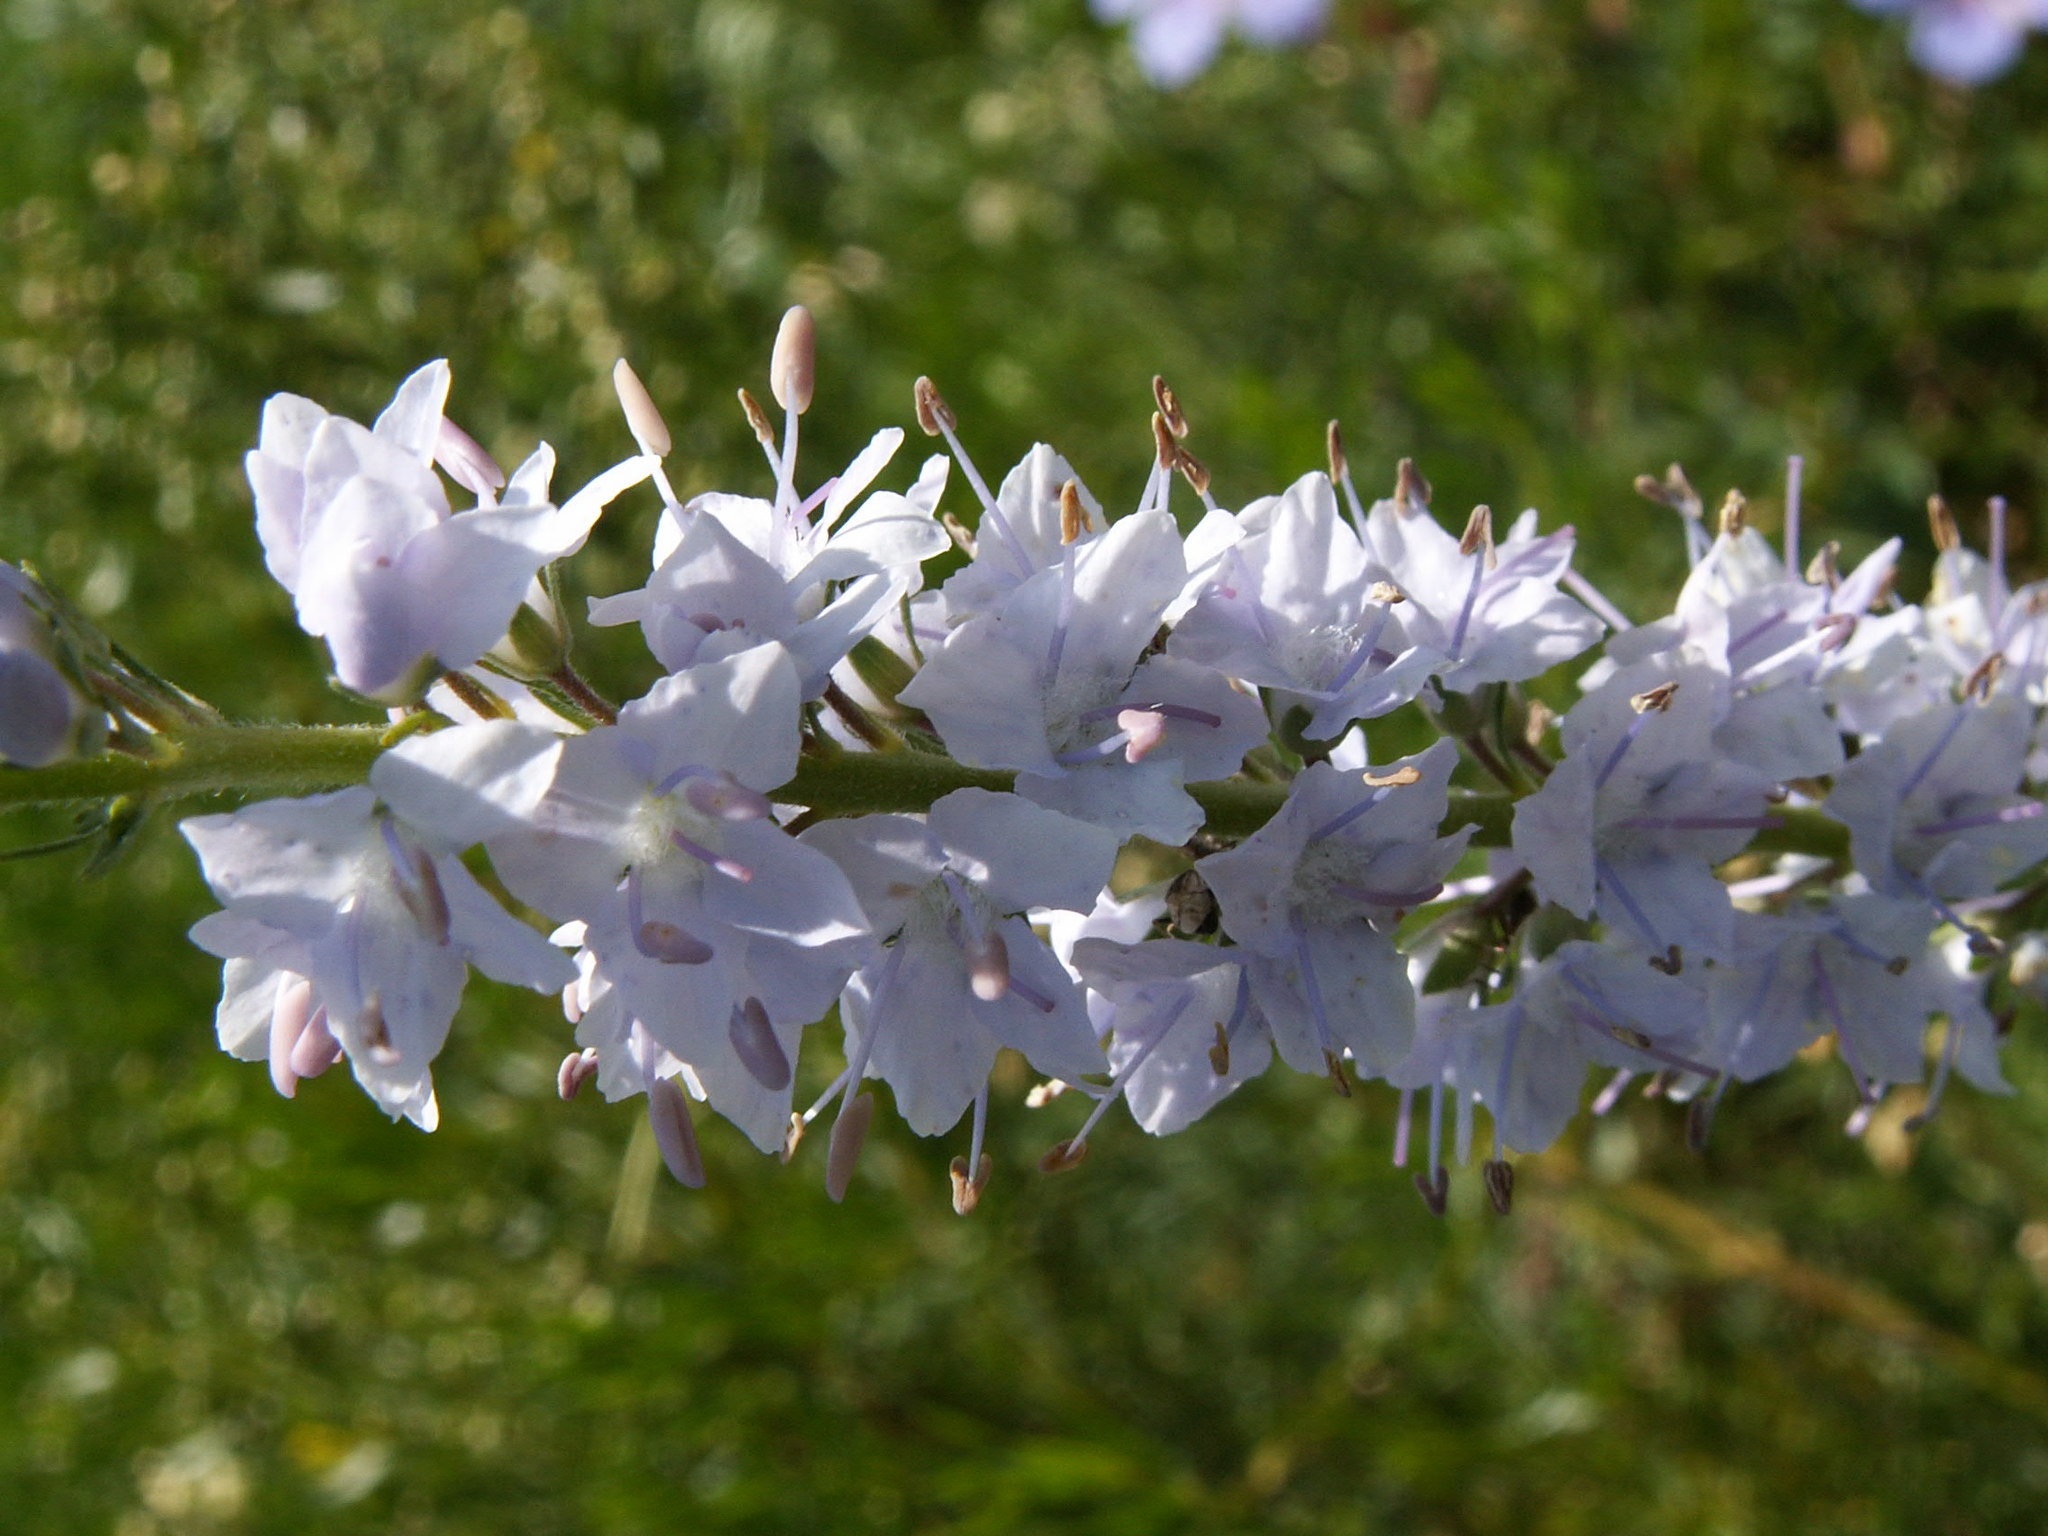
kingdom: Plantae
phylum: Tracheophyta
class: Magnoliopsida
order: Lamiales
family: Plantaginaceae
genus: Veronica
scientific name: Veronica longifolia
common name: Garden speedwell
